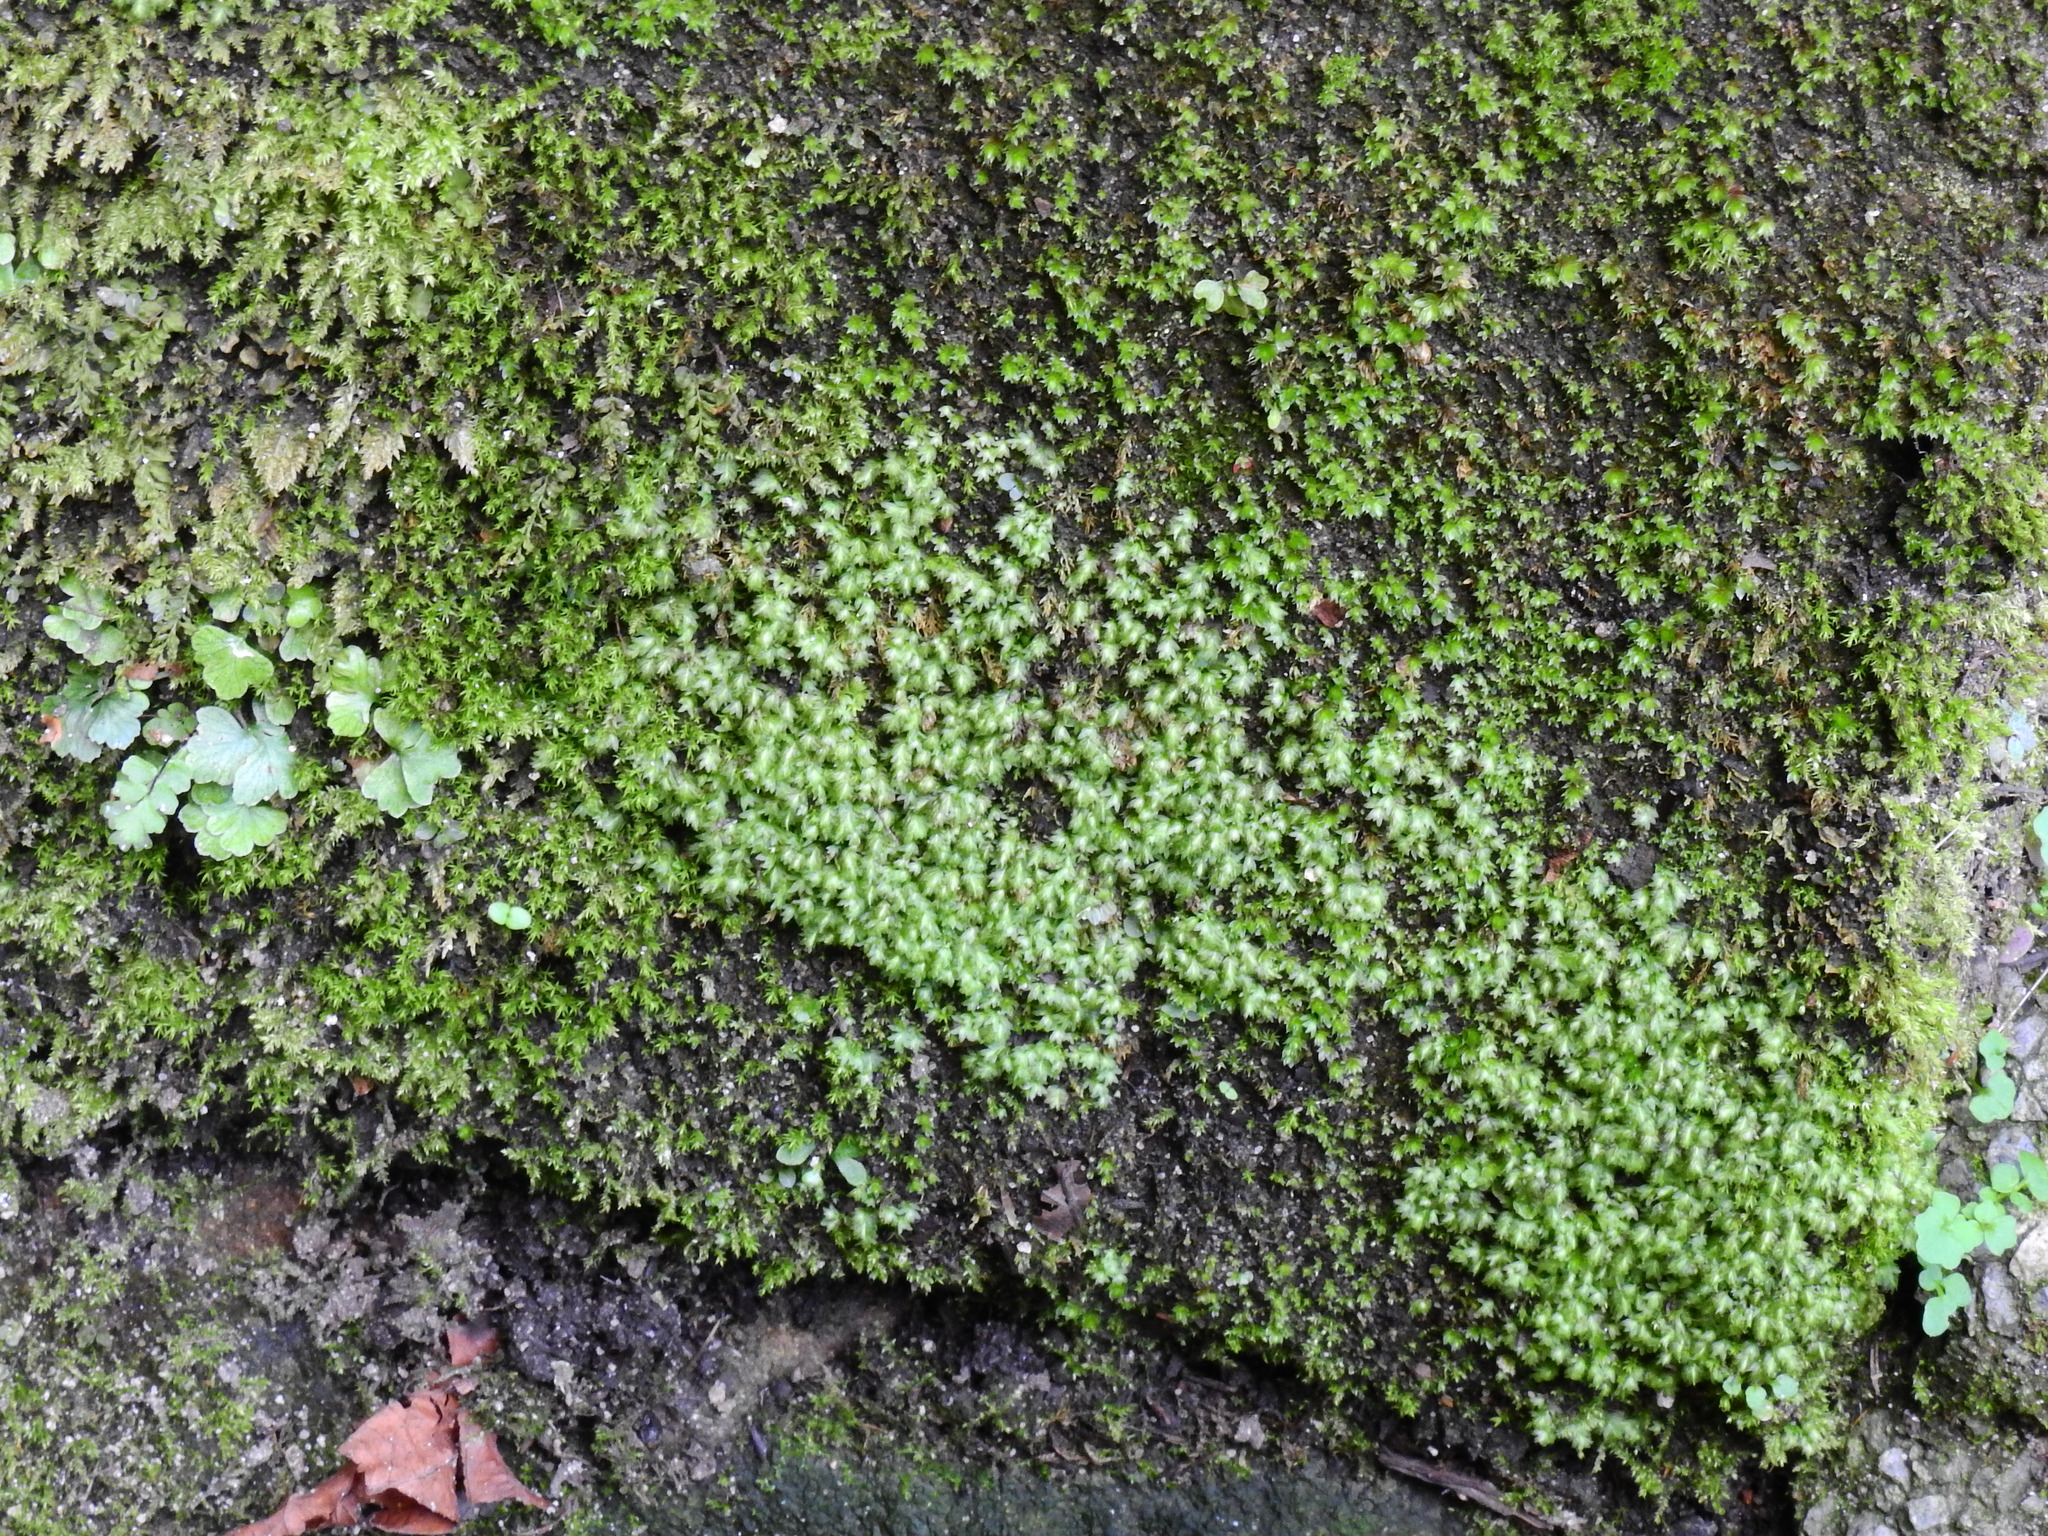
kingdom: Plantae
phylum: Bryophyta
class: Bryopsida
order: Dicranales
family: Fissidentaceae
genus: Fissidens
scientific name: Fissidens pusillus
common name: Petty pocket-moss
